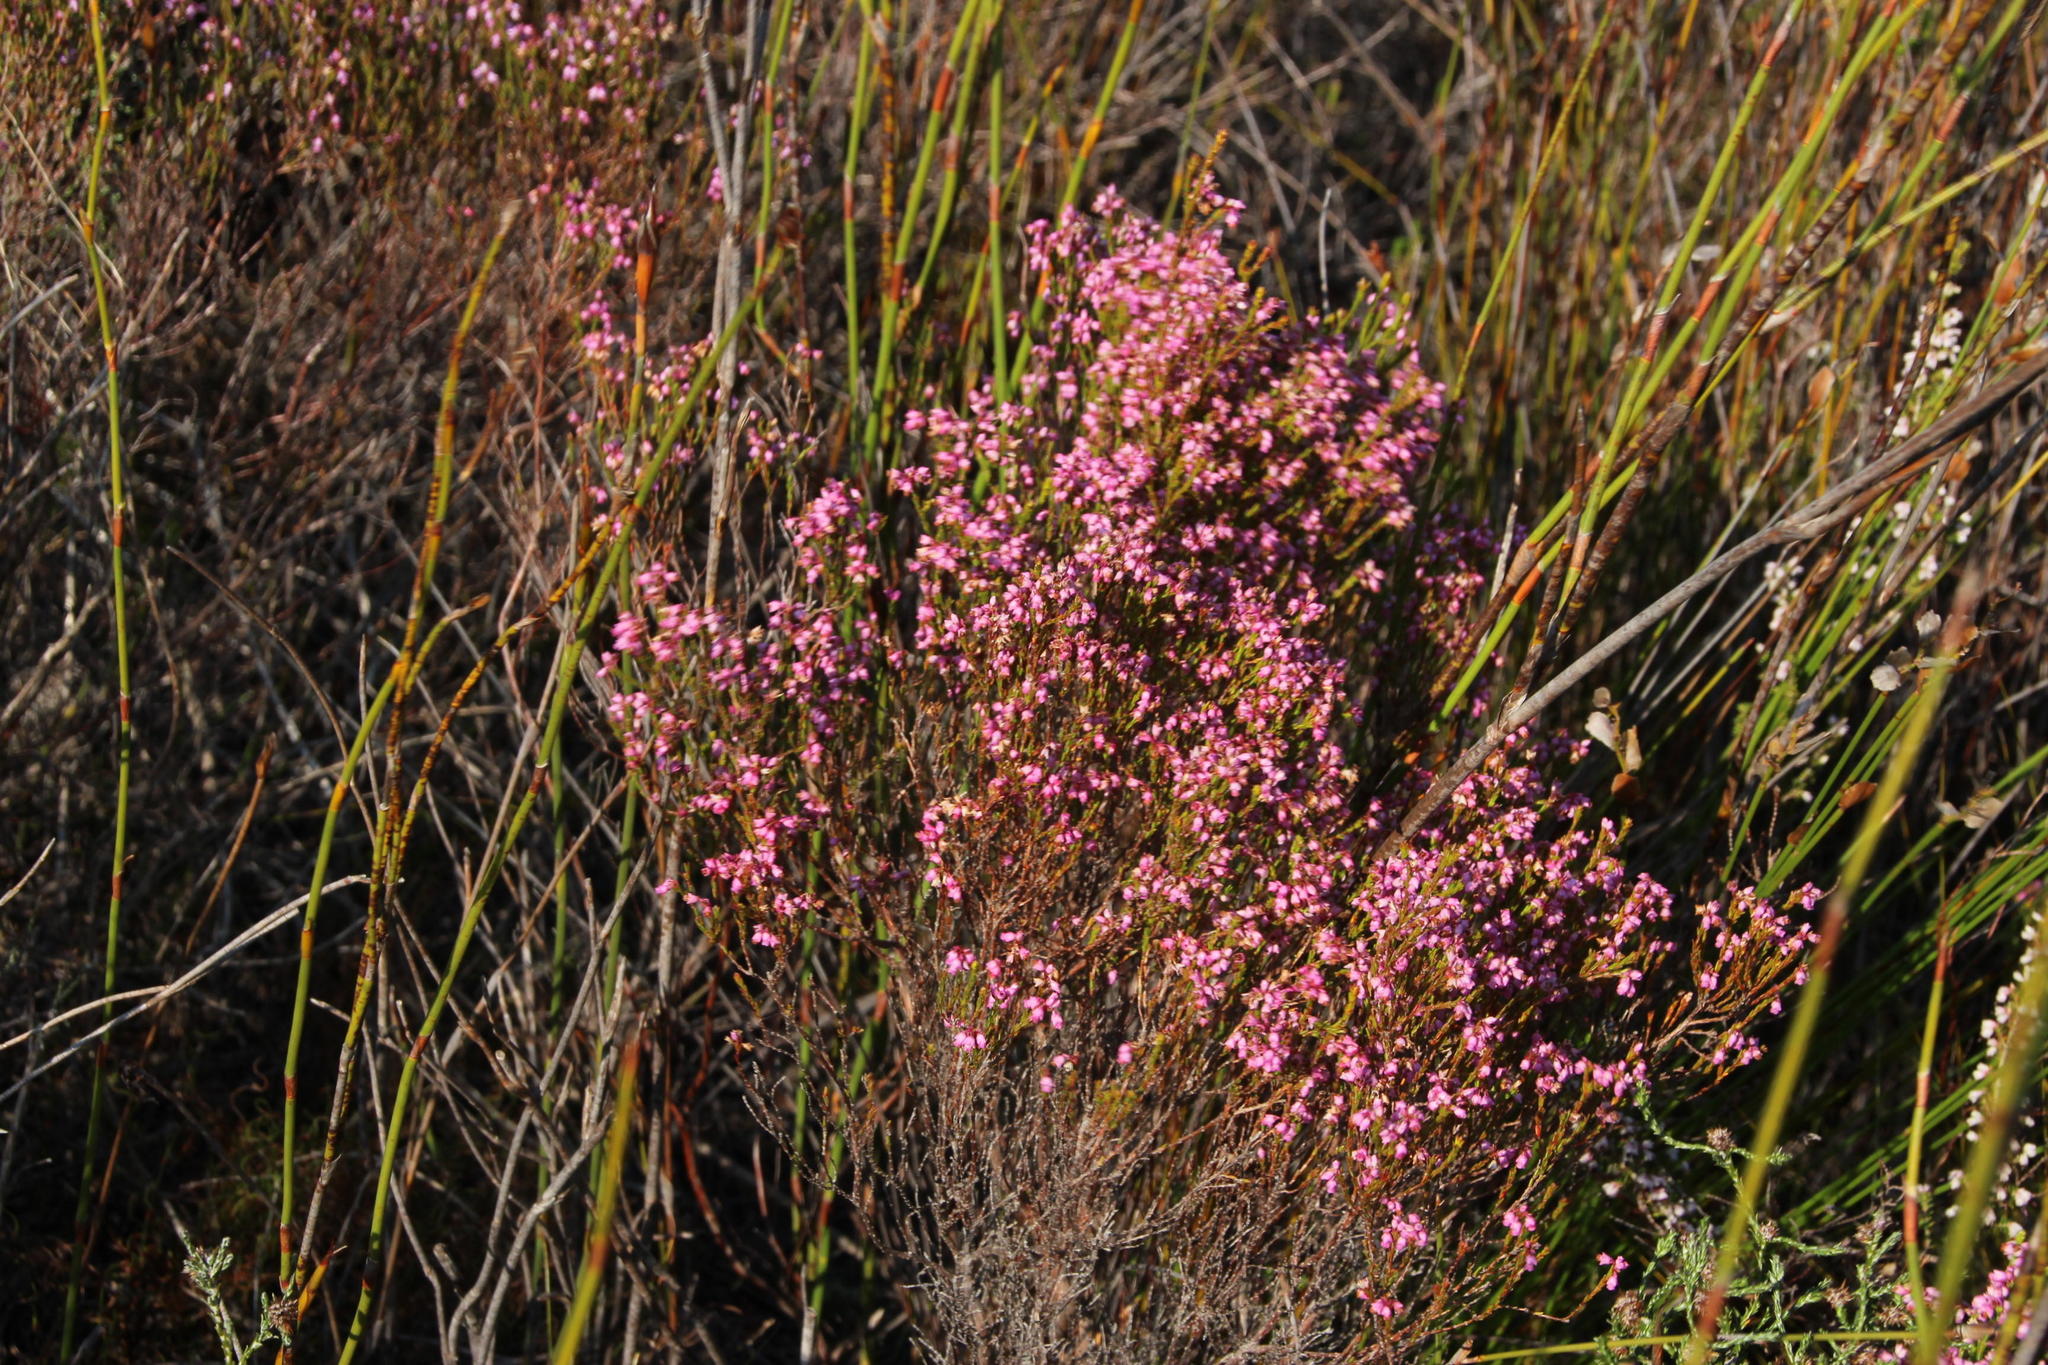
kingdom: Plantae
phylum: Tracheophyta
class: Magnoliopsida
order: Ericales
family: Ericaceae
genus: Erica
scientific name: Erica corifolia
